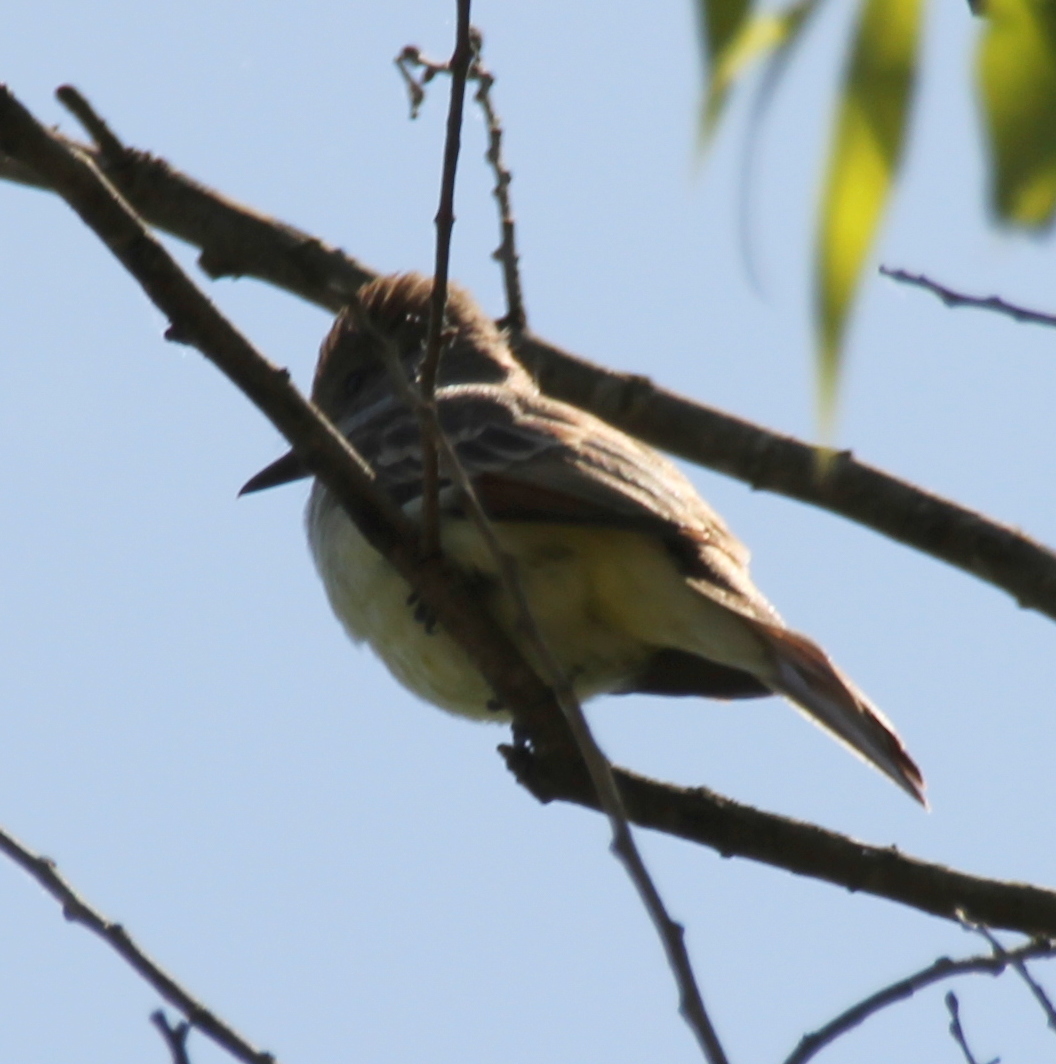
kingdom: Animalia
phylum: Chordata
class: Aves
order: Passeriformes
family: Tyrannidae
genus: Myiarchus
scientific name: Myiarchus cinerascens
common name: Ash-throated flycatcher
